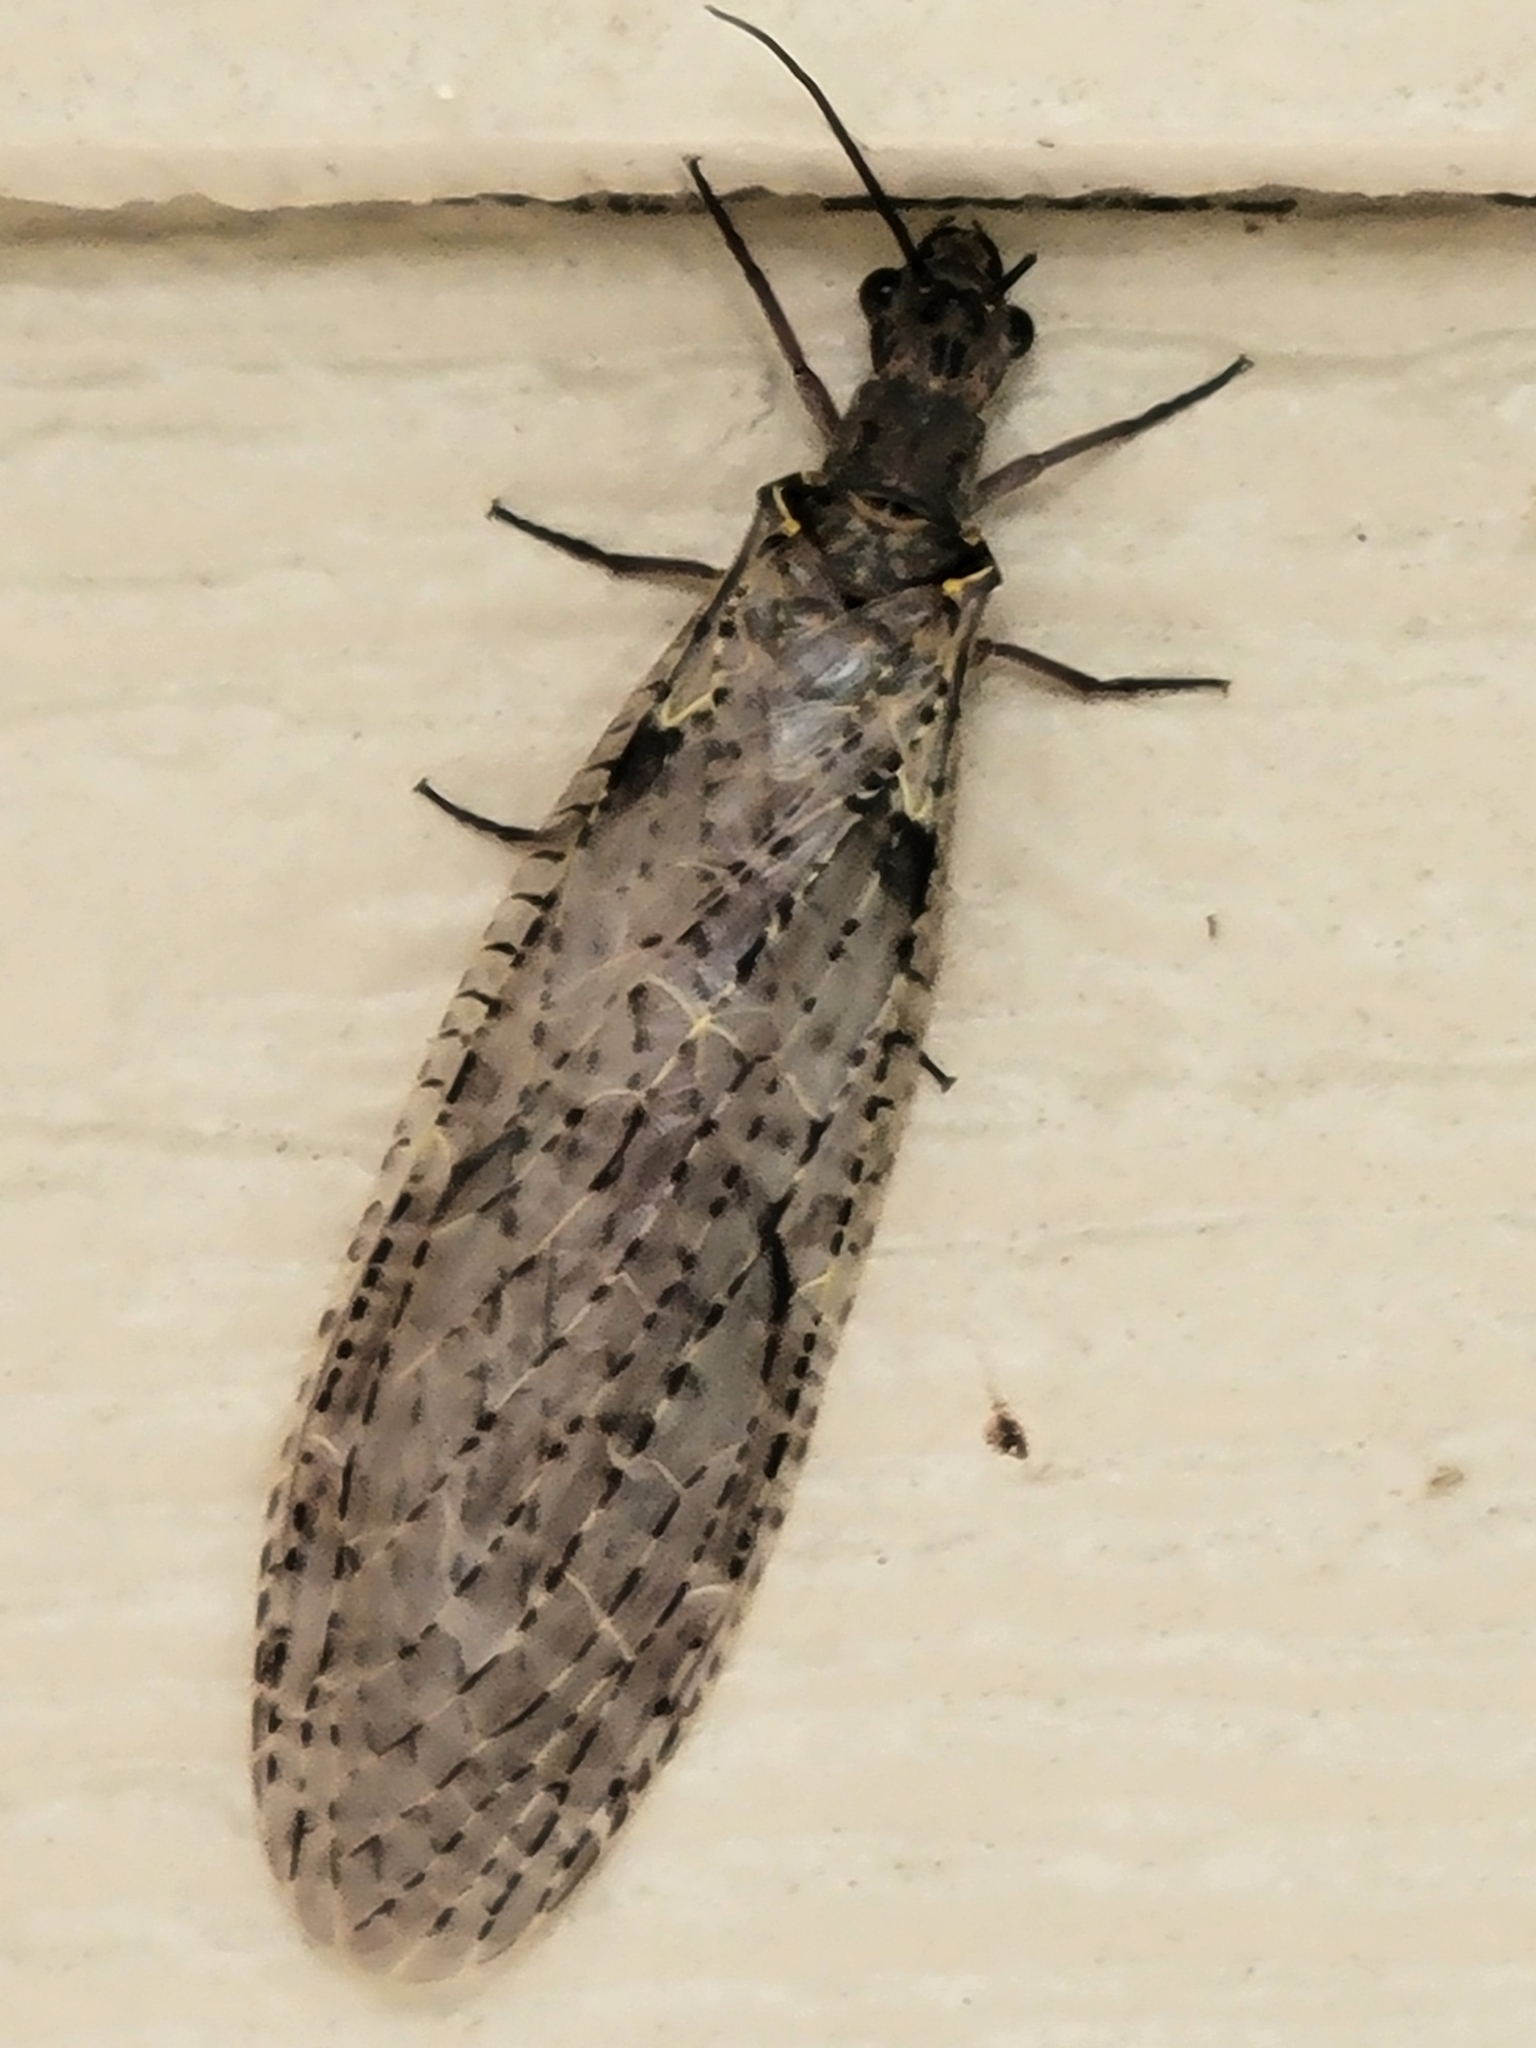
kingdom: Animalia
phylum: Arthropoda
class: Insecta
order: Megaloptera
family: Corydalidae
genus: Chauliodes
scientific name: Chauliodes rastricornis
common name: Spring fishfly
